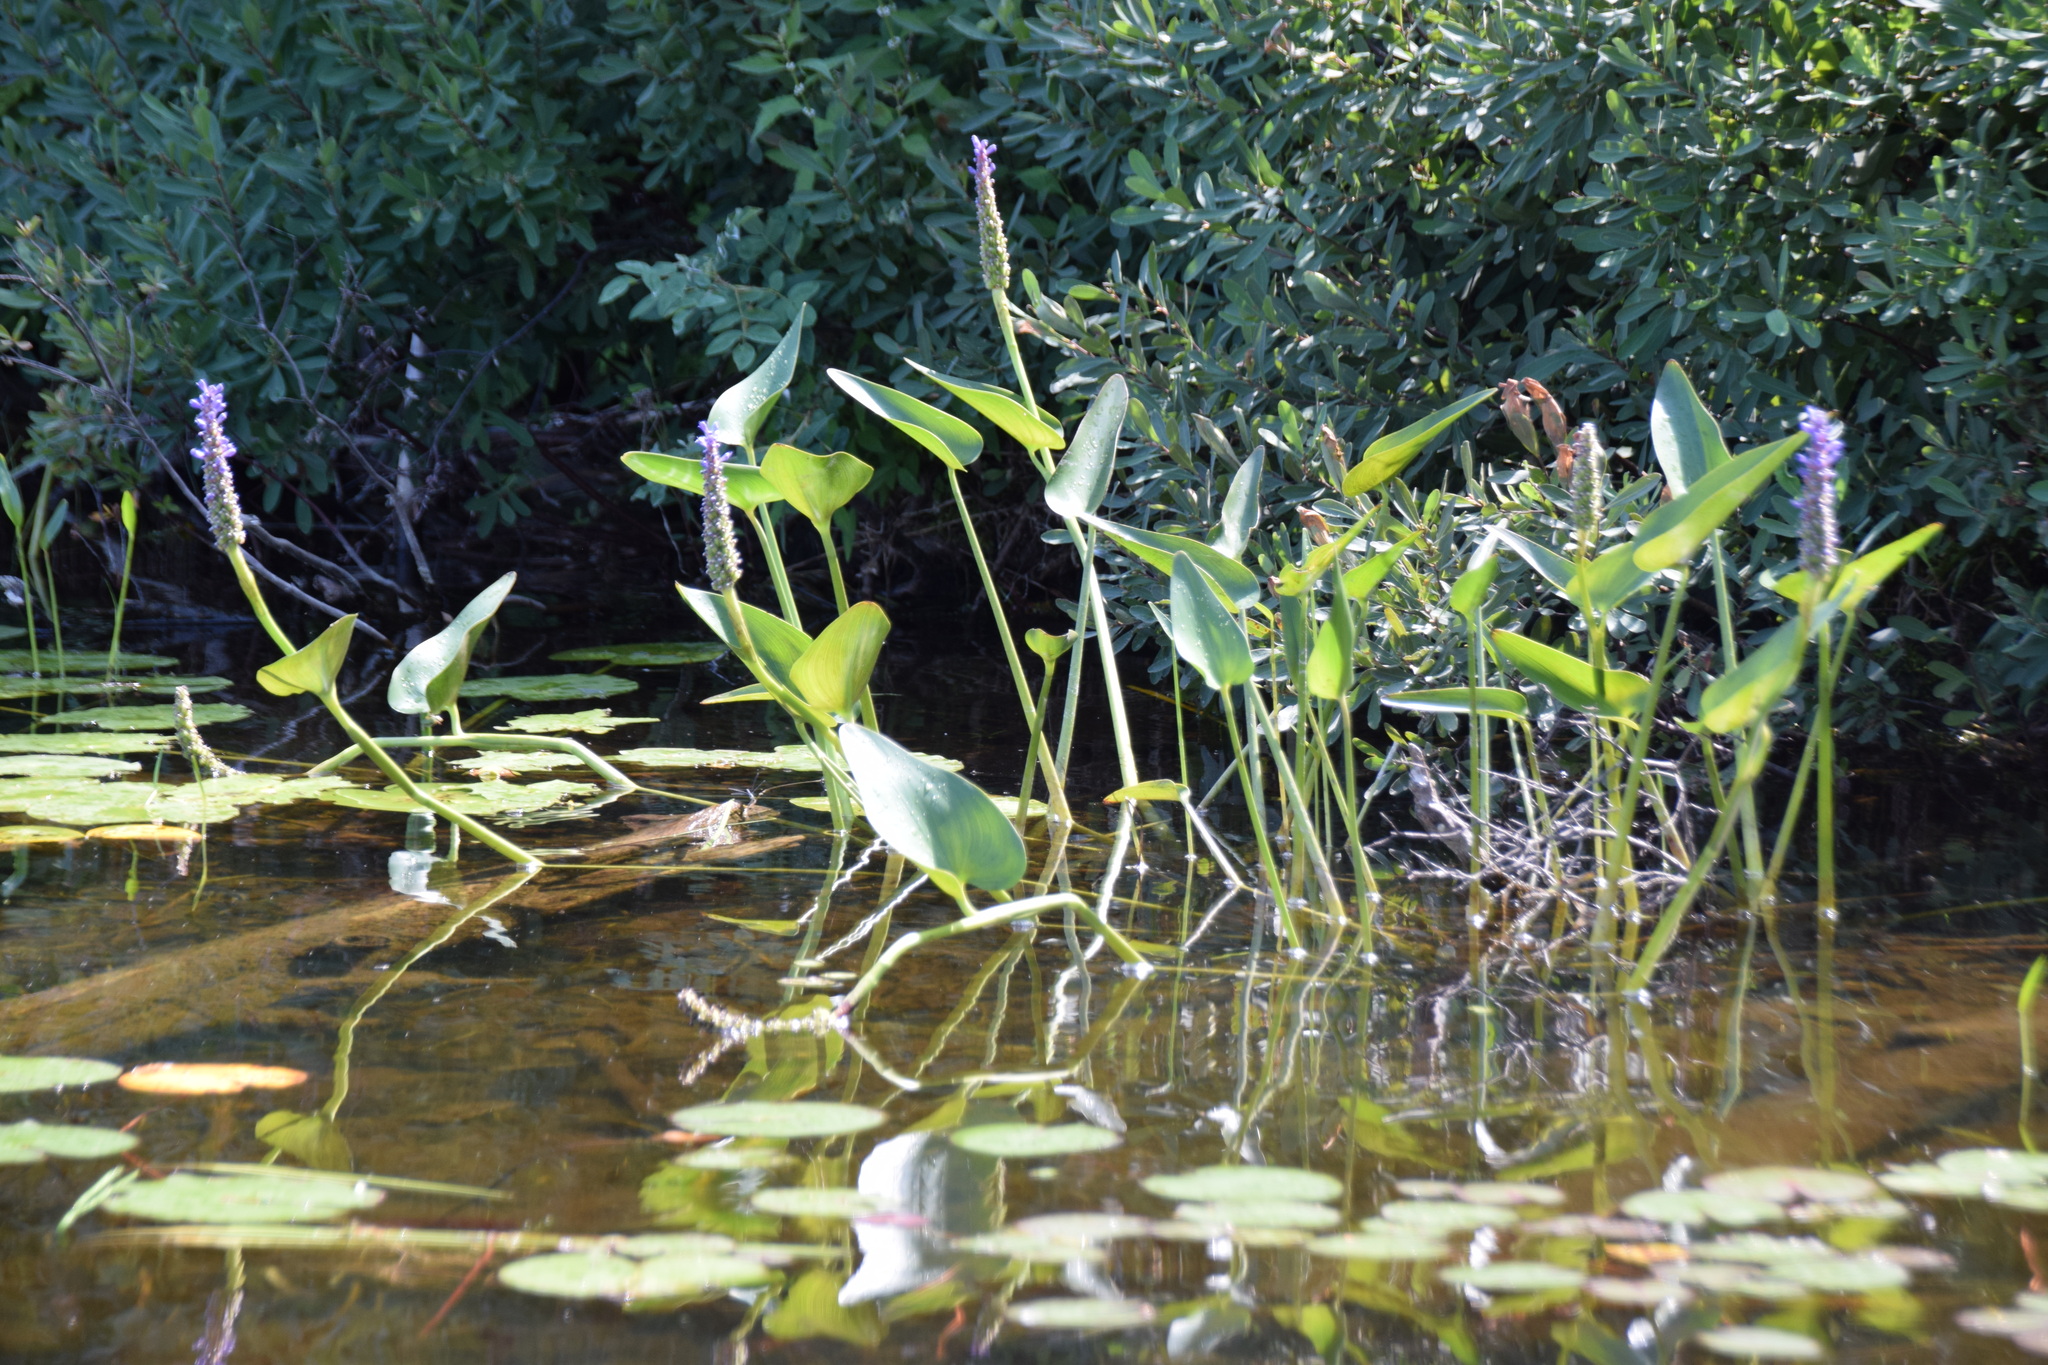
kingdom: Plantae
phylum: Tracheophyta
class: Liliopsida
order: Commelinales
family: Pontederiaceae
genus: Pontederia
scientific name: Pontederia cordata
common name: Pickerelweed
